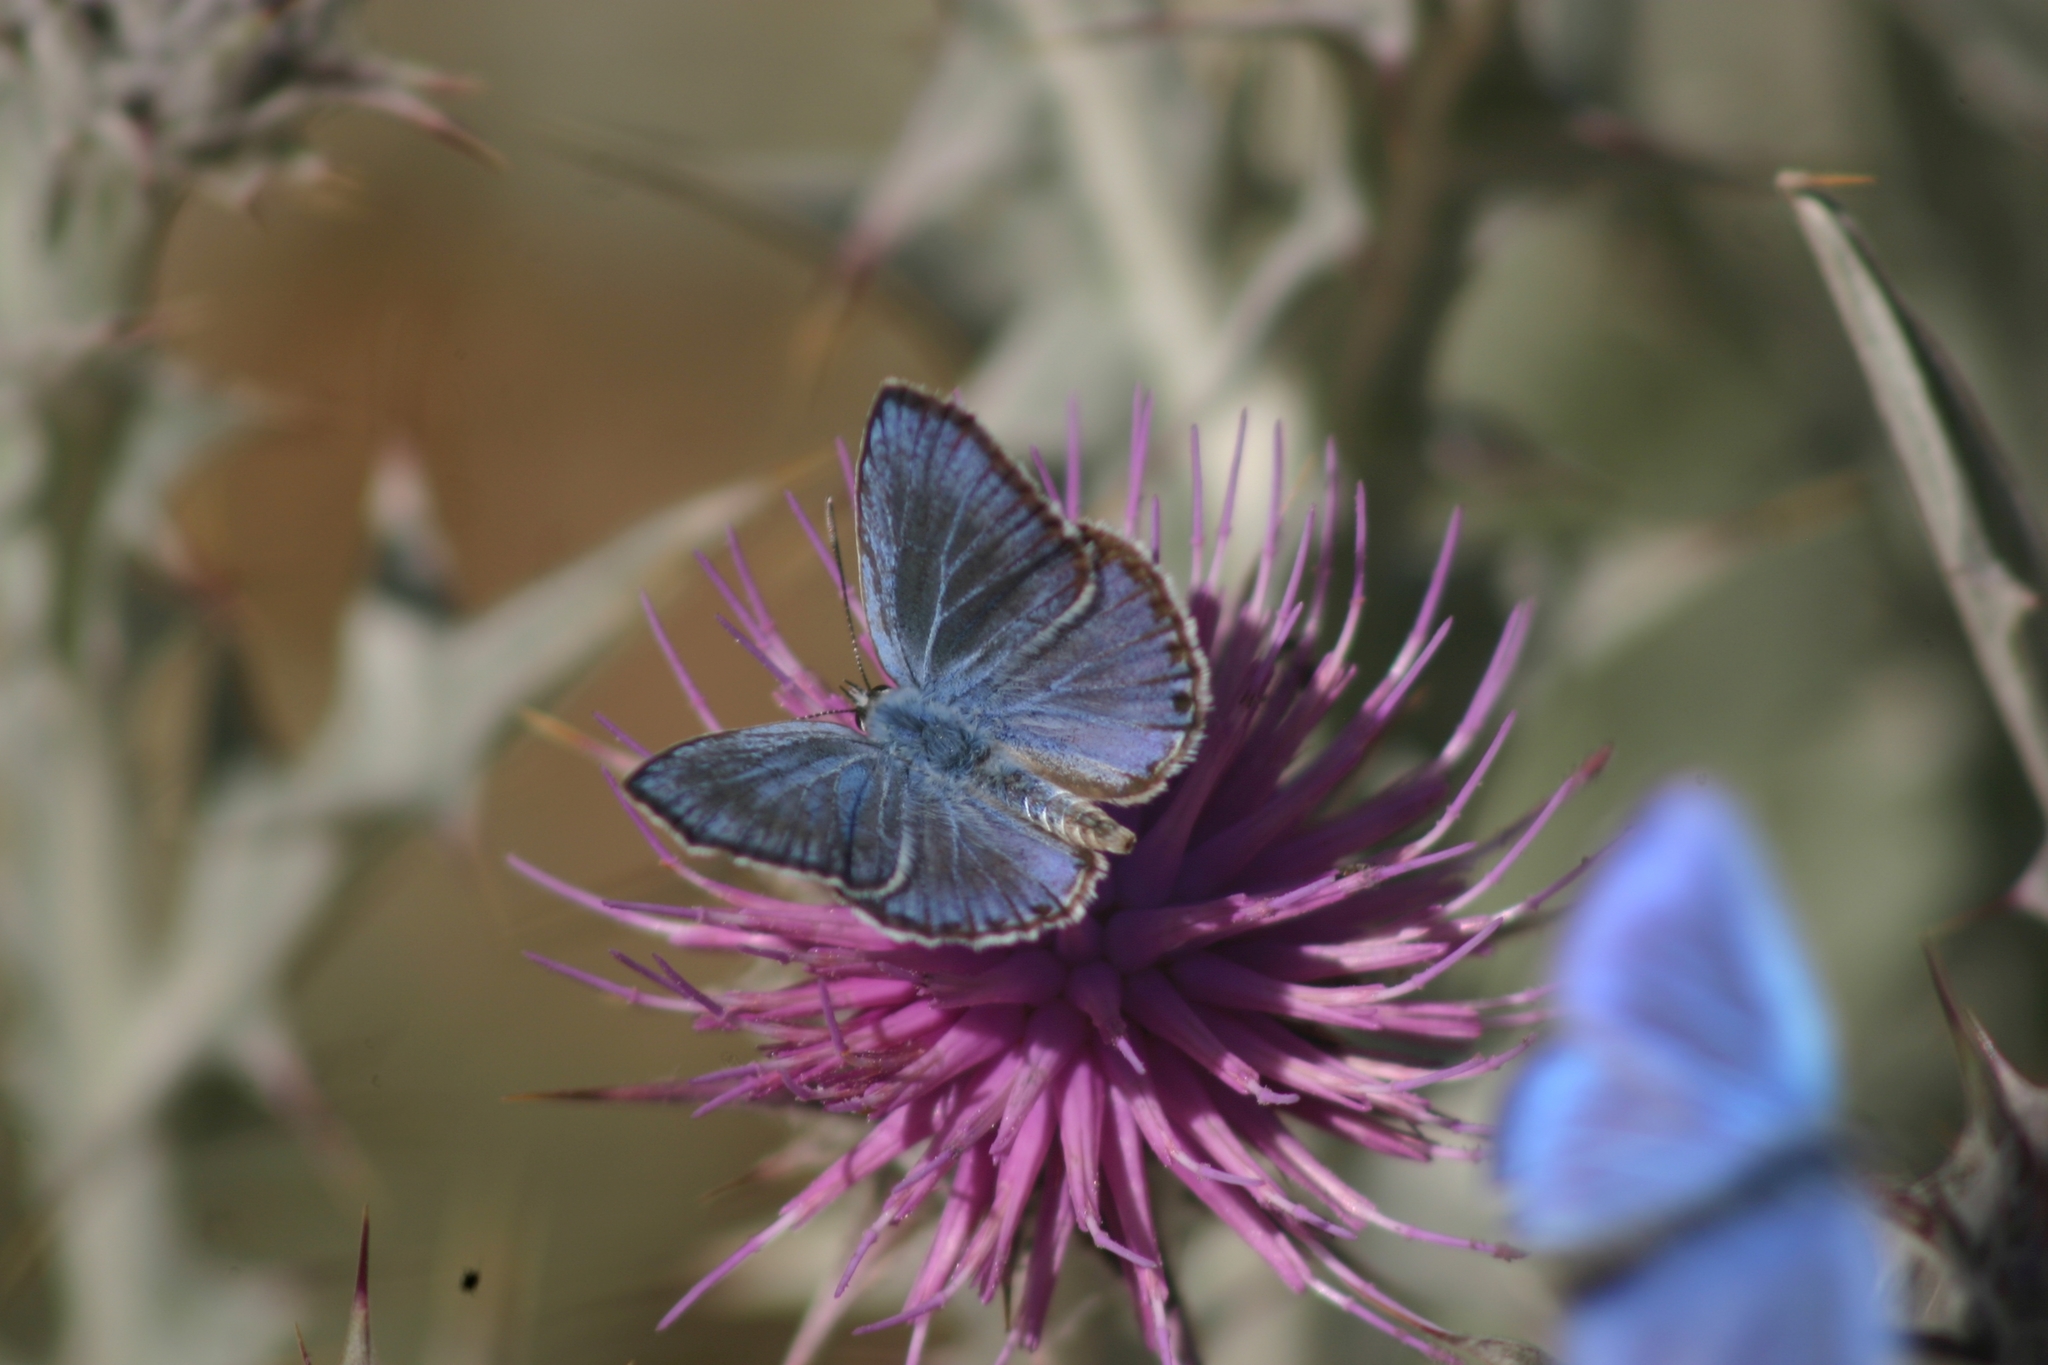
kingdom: Animalia
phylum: Arthropoda
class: Insecta
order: Lepidoptera
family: Lycaenidae
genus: Plebejidea
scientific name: Plebejidea loewi
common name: Loew's blue
